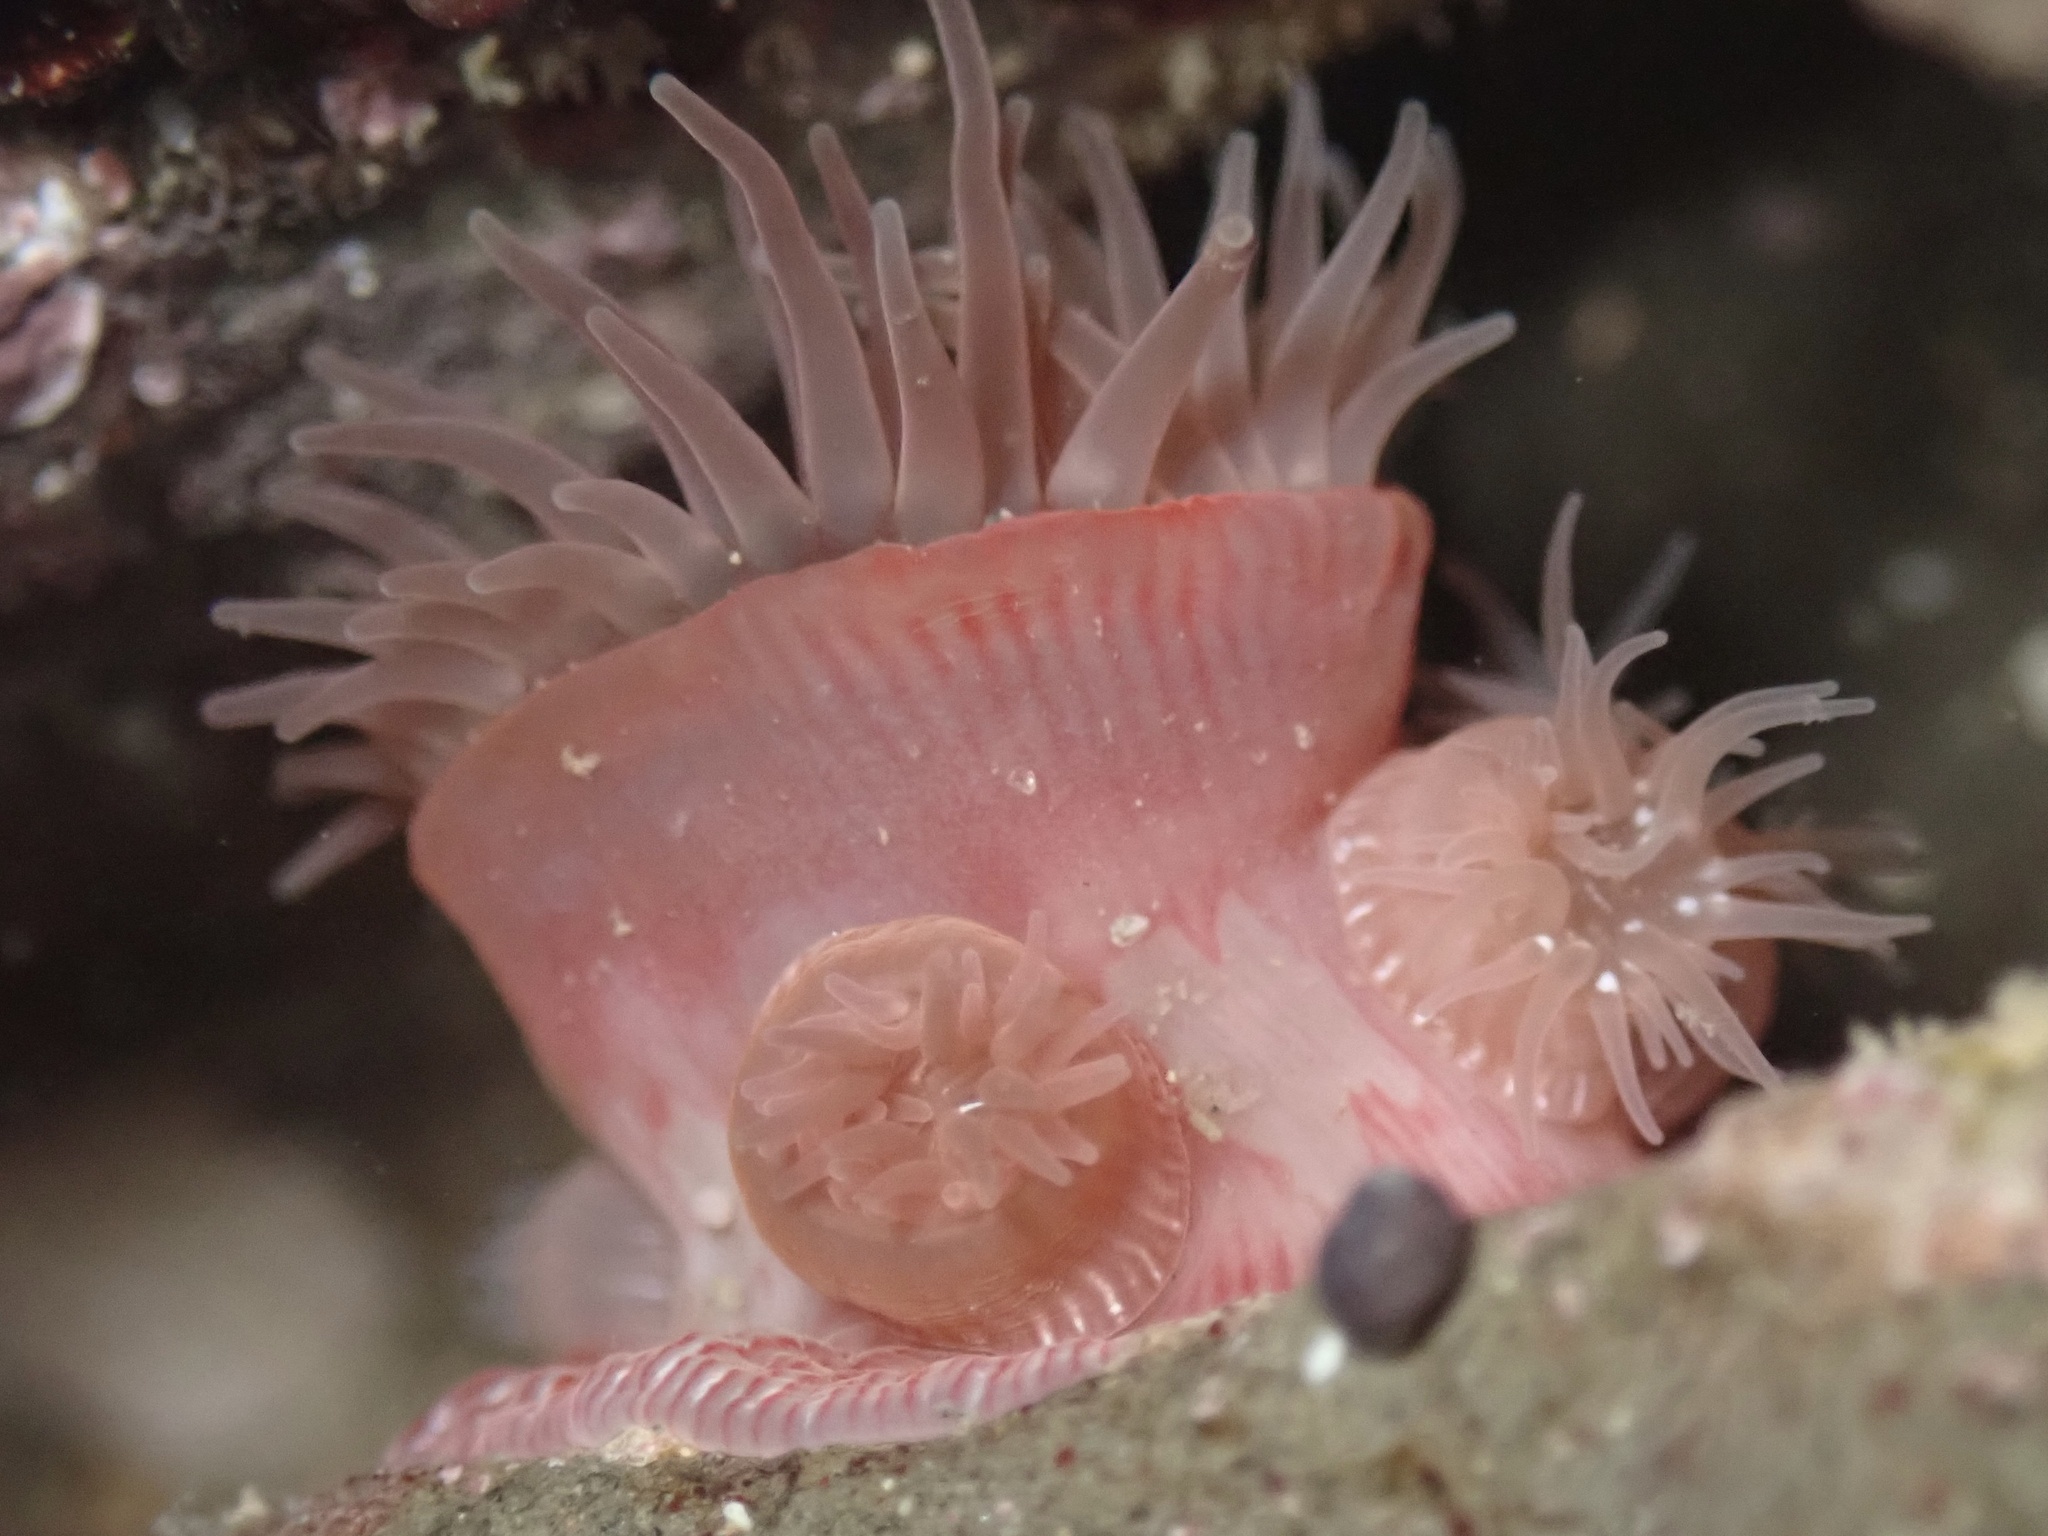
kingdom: Animalia
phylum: Cnidaria
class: Anthozoa
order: Actiniaria
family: Actiniidae
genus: Epiactis
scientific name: Epiactis prolifera
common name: Brooding anemone
